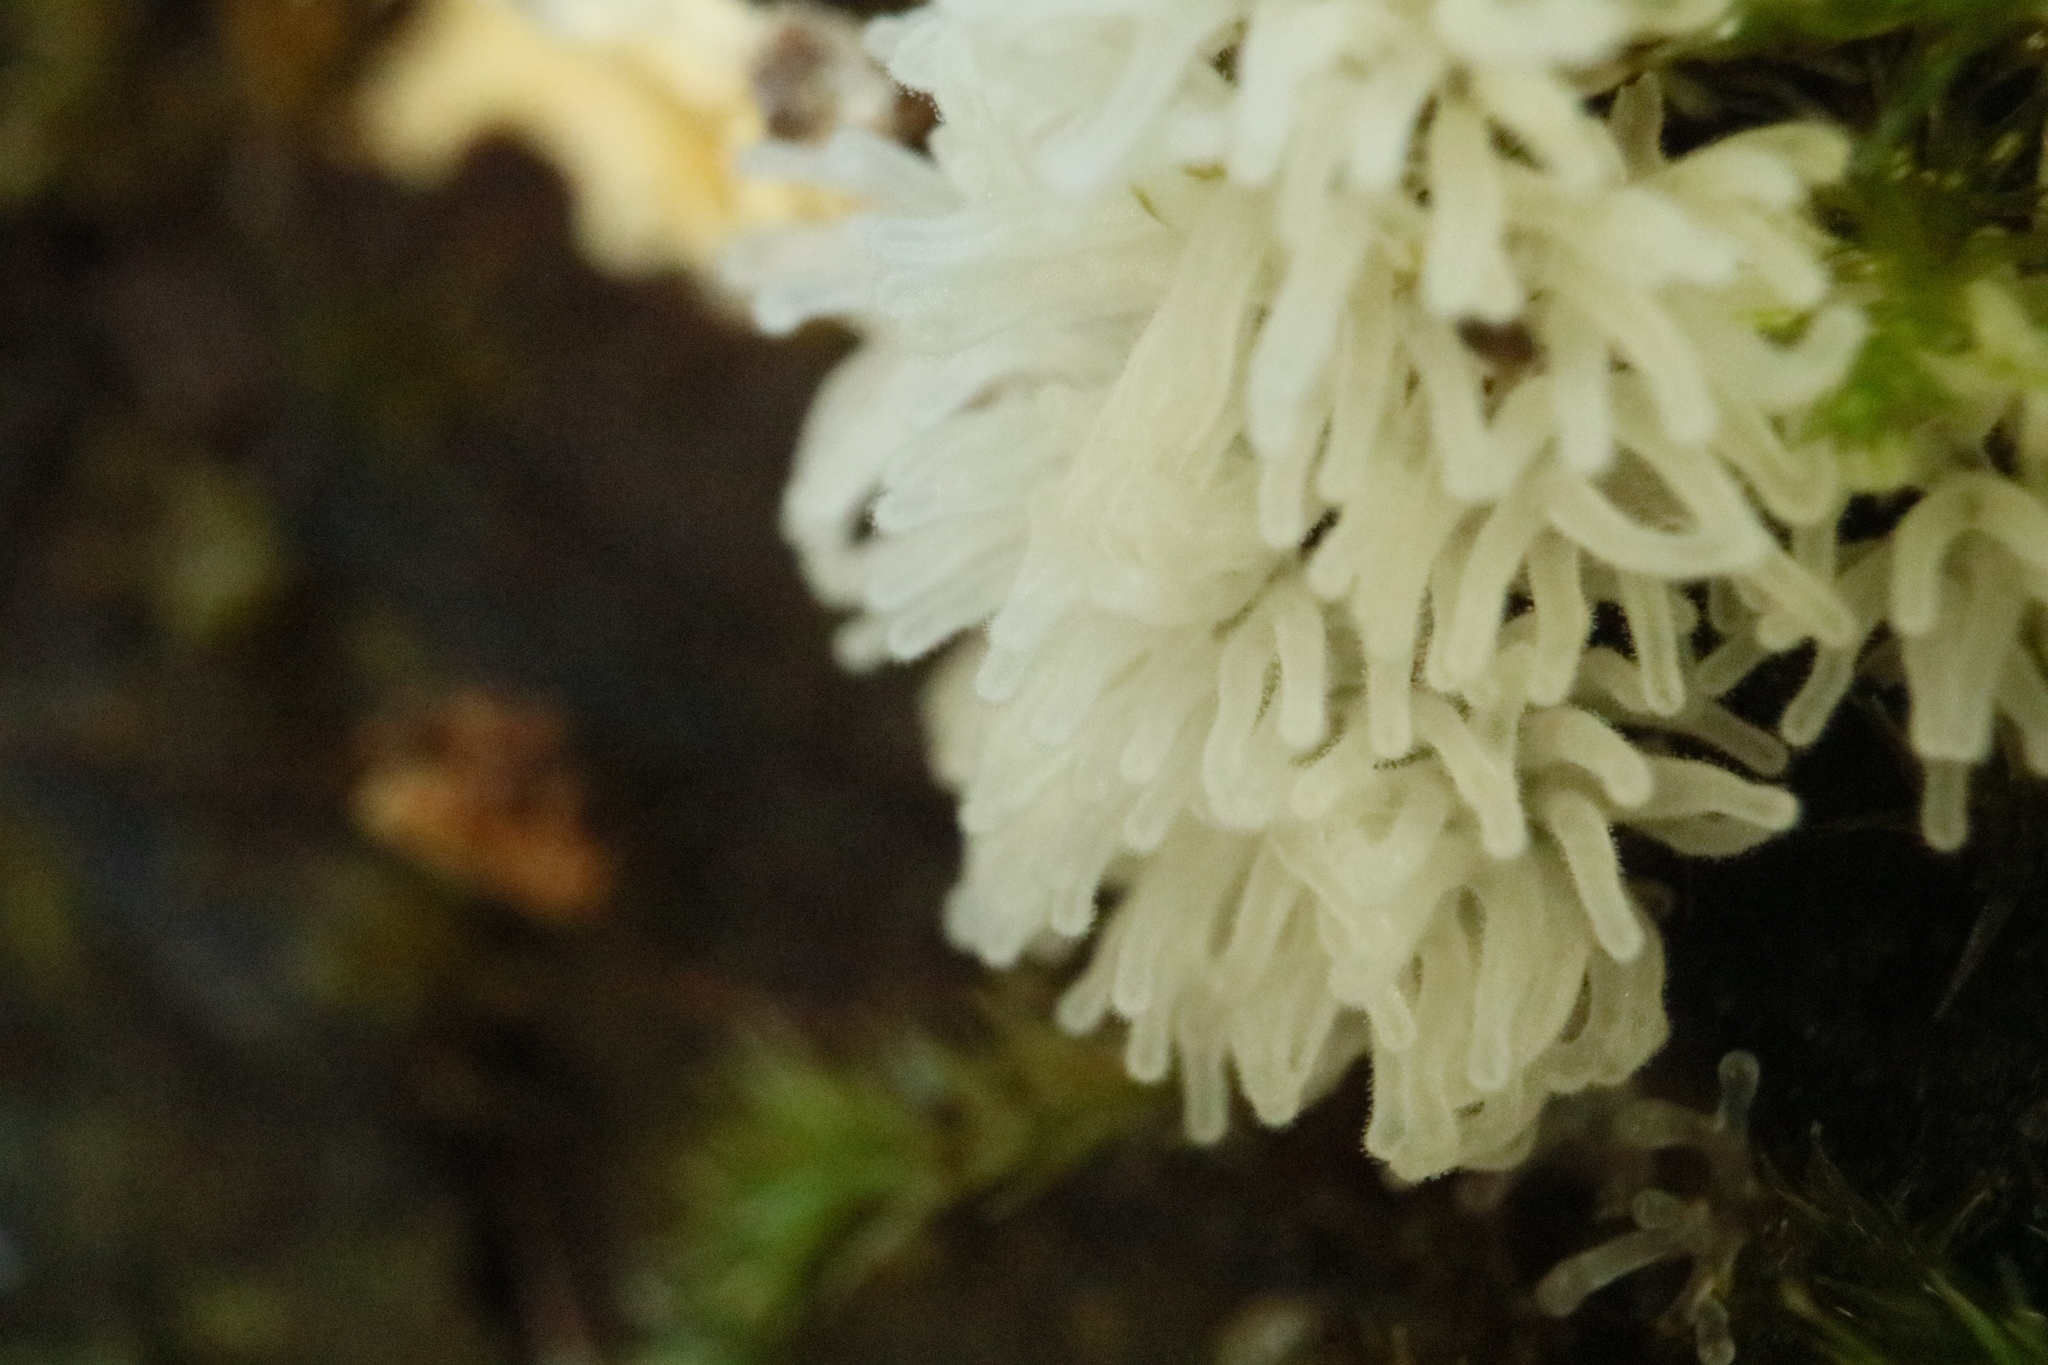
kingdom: Protozoa
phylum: Mycetozoa
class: Protosteliomycetes
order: Ceratiomyxales
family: Ceratiomyxaceae
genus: Ceratiomyxa
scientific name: Ceratiomyxa fruticulosa
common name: Honeycomb coral slime mold
